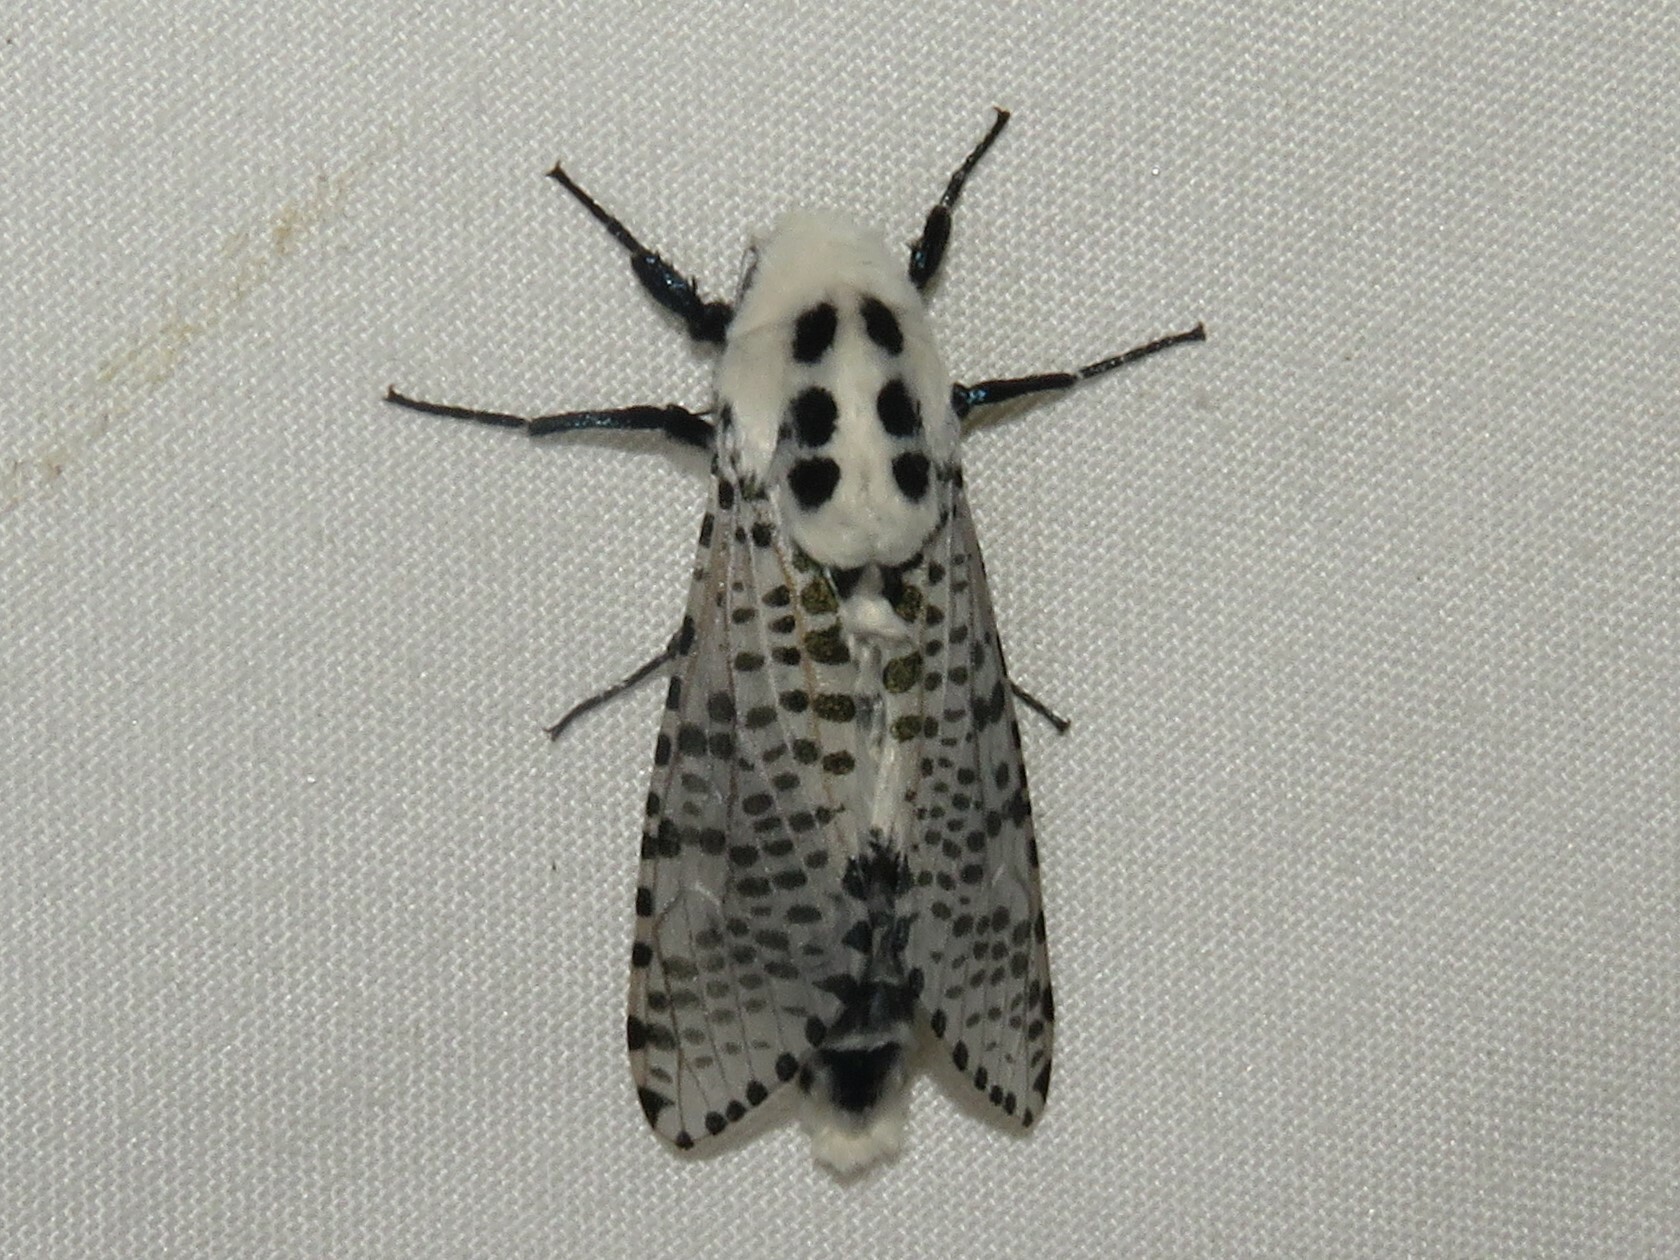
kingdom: Animalia
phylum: Arthropoda
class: Insecta
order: Lepidoptera
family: Cossidae
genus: Zeuzera
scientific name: Zeuzera pyrina
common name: Leopard moth
